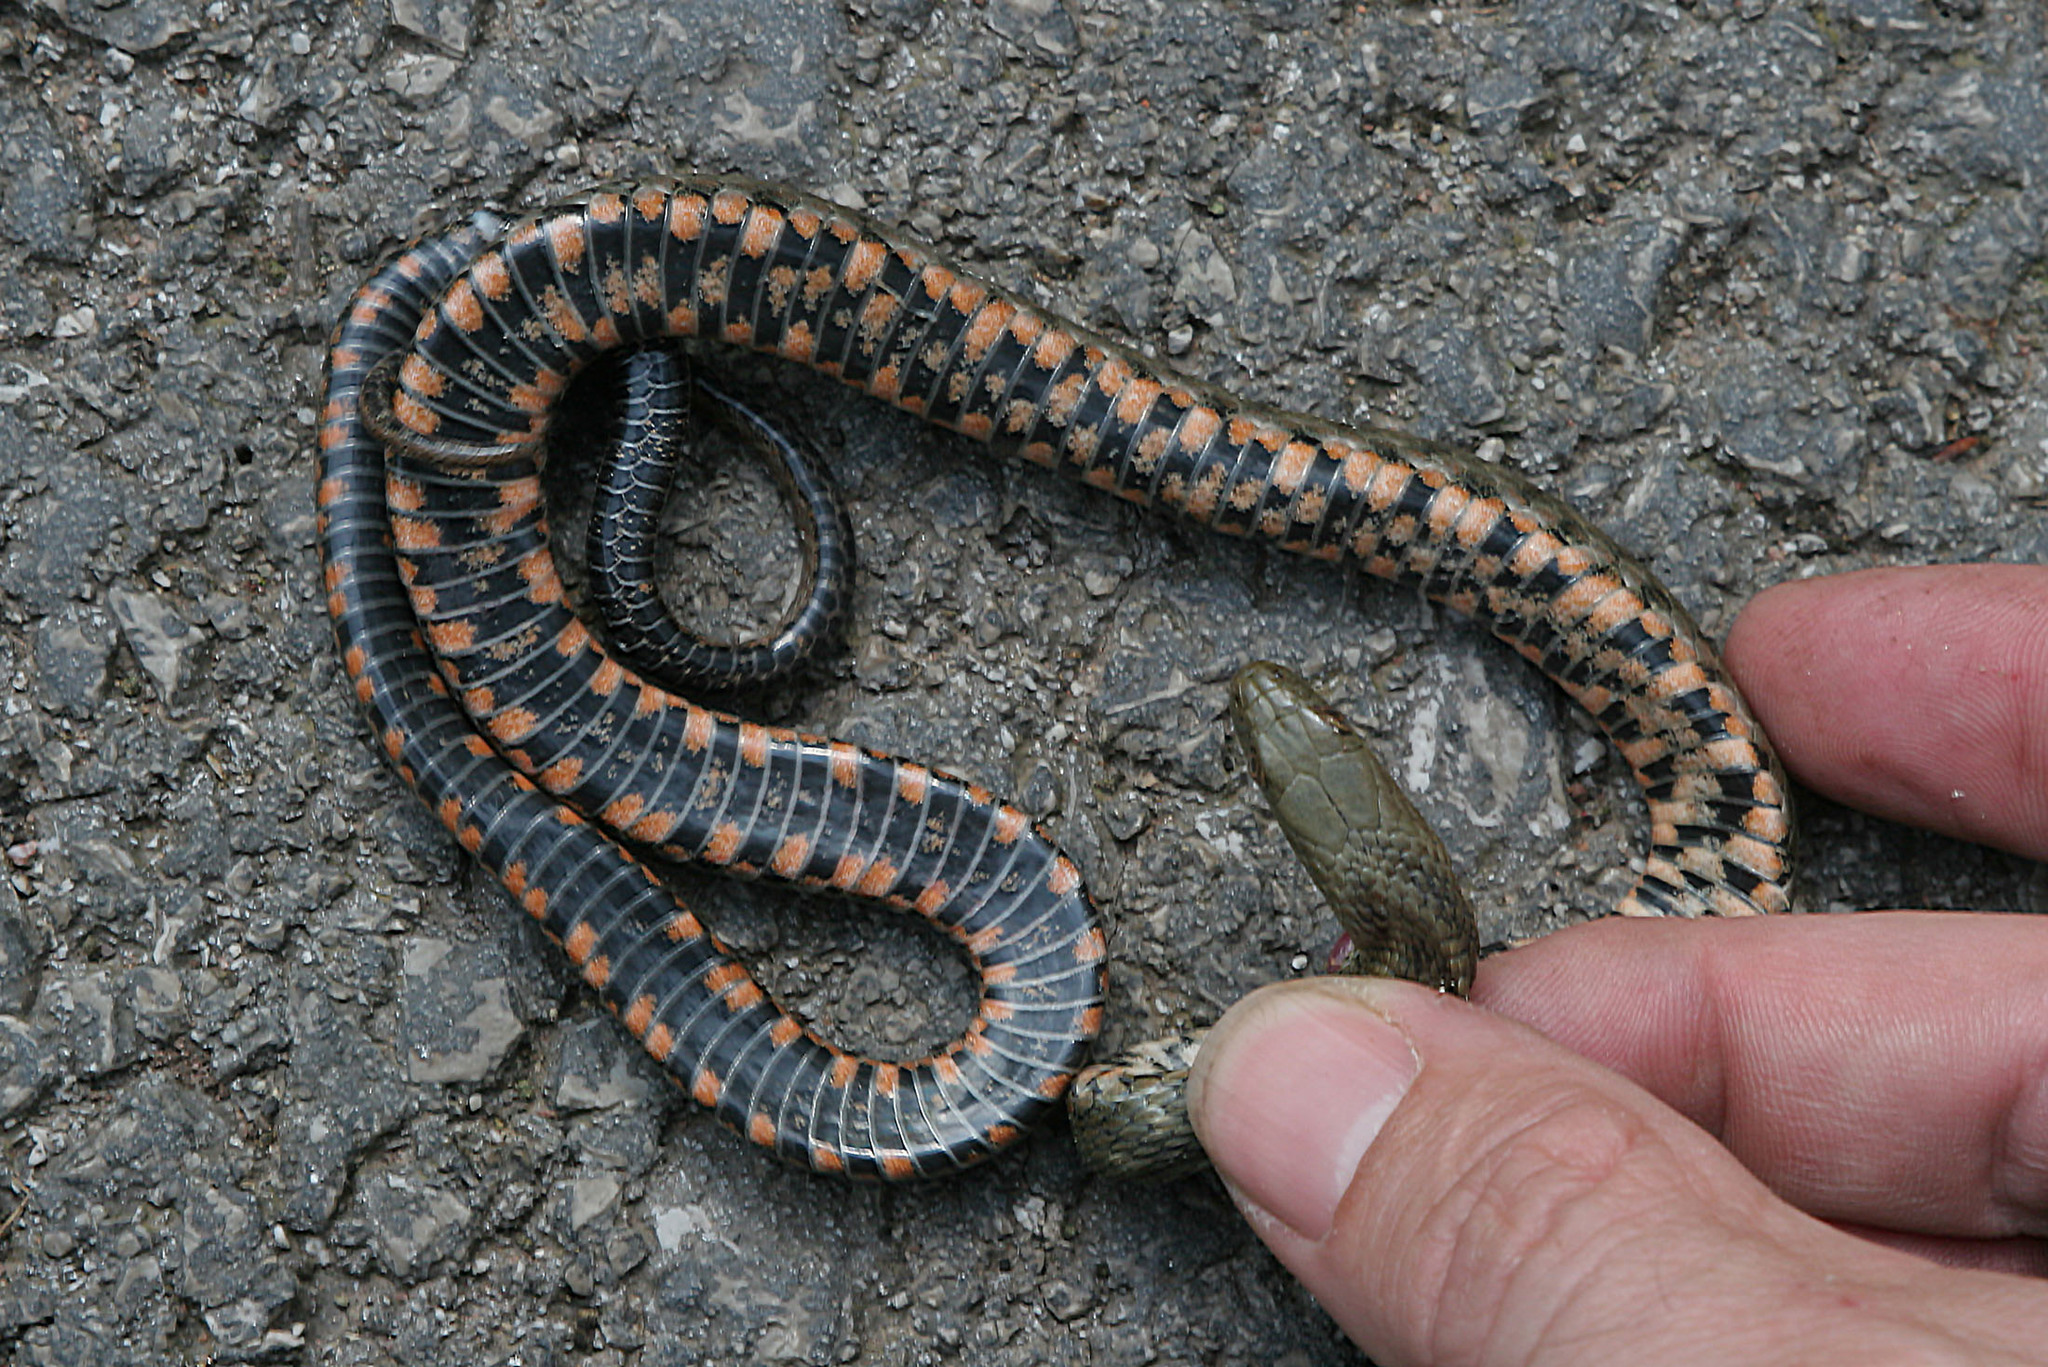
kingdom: Animalia
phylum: Chordata
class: Squamata
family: Colubridae
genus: Natrix
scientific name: Natrix tessellata
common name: Dice snake
